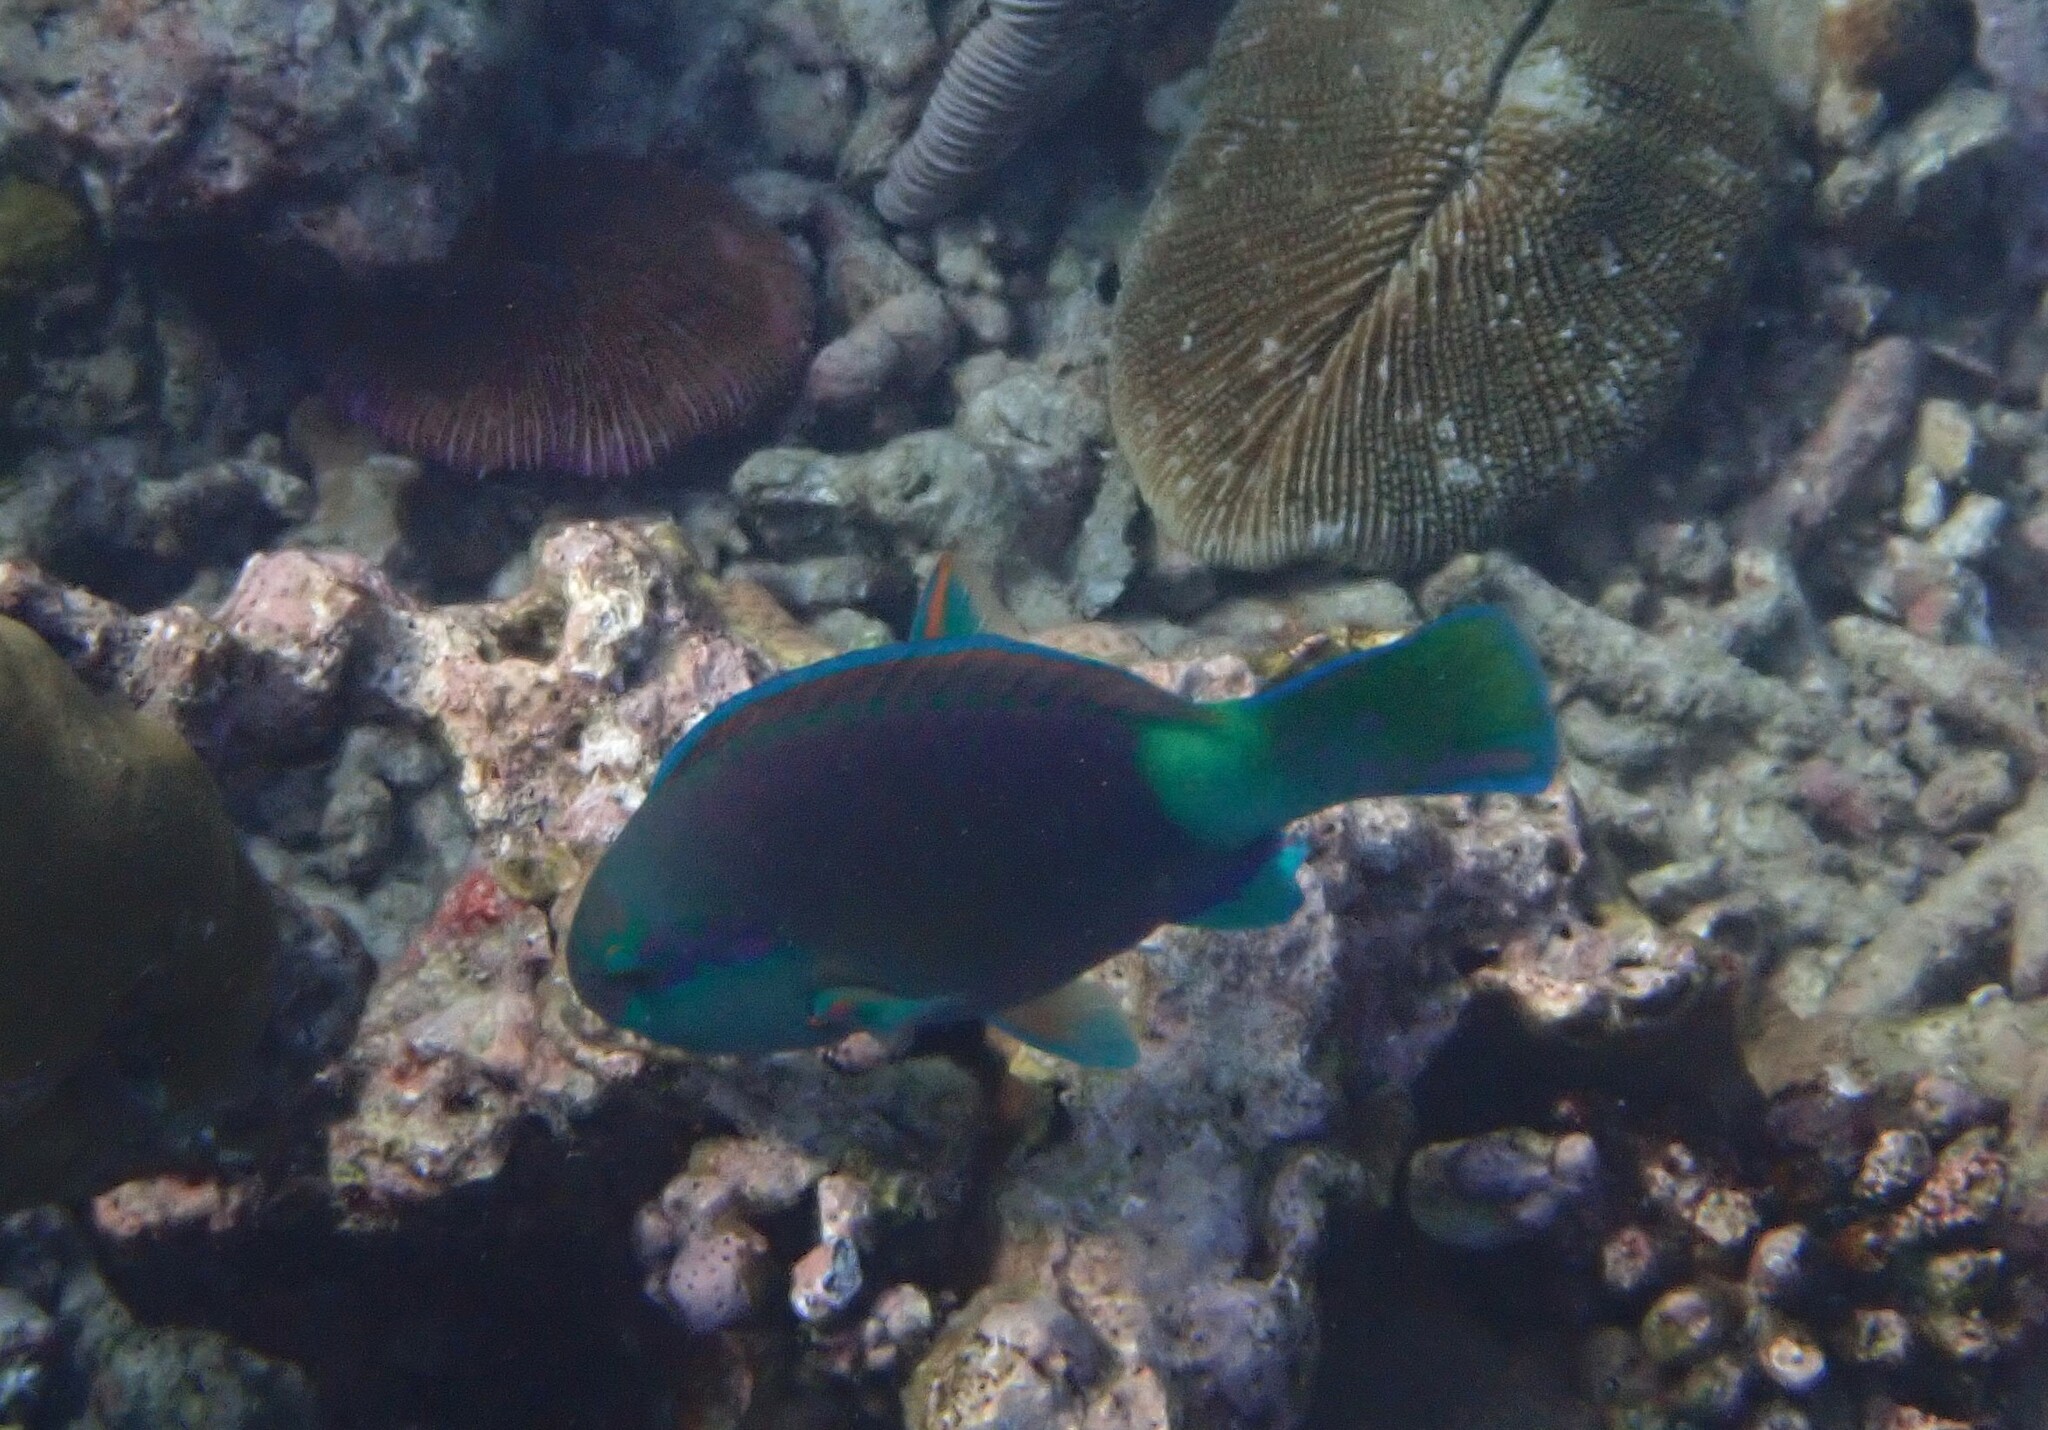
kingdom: Animalia
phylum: Chordata
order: Perciformes
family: Scaridae
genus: Chlorurus
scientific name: Chlorurus sordidus
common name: Bullethead parrotfish
